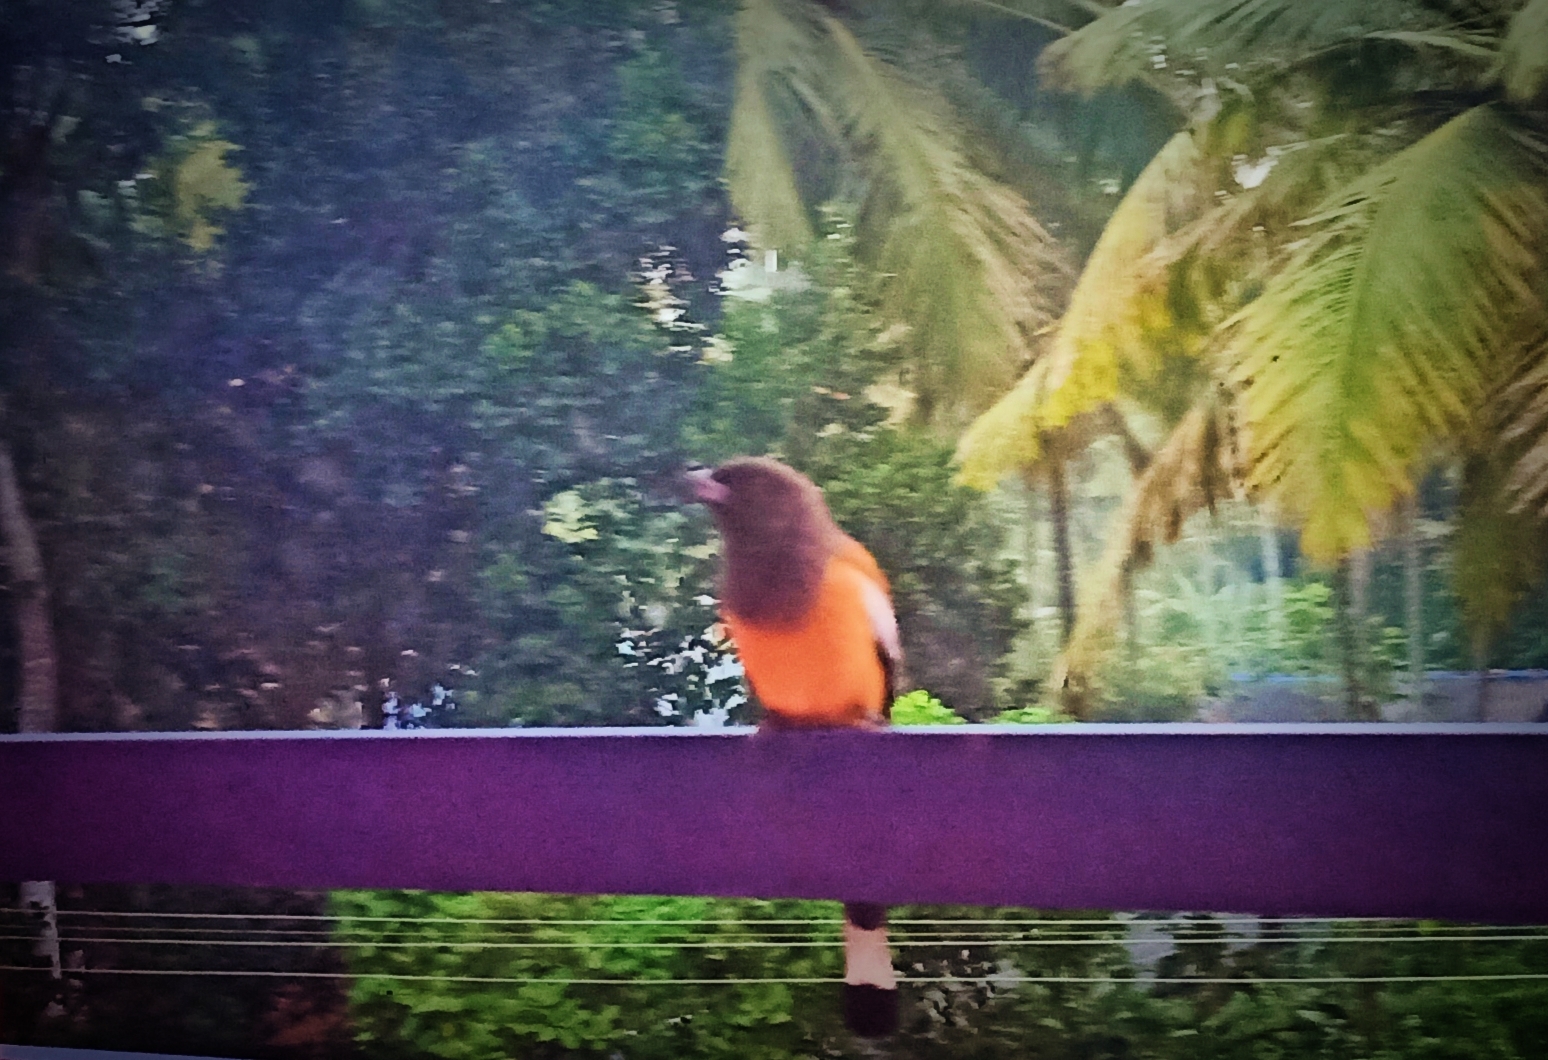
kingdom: Animalia
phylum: Chordata
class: Aves
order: Passeriformes
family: Corvidae
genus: Dendrocitta
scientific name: Dendrocitta vagabunda
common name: Rufous treepie
